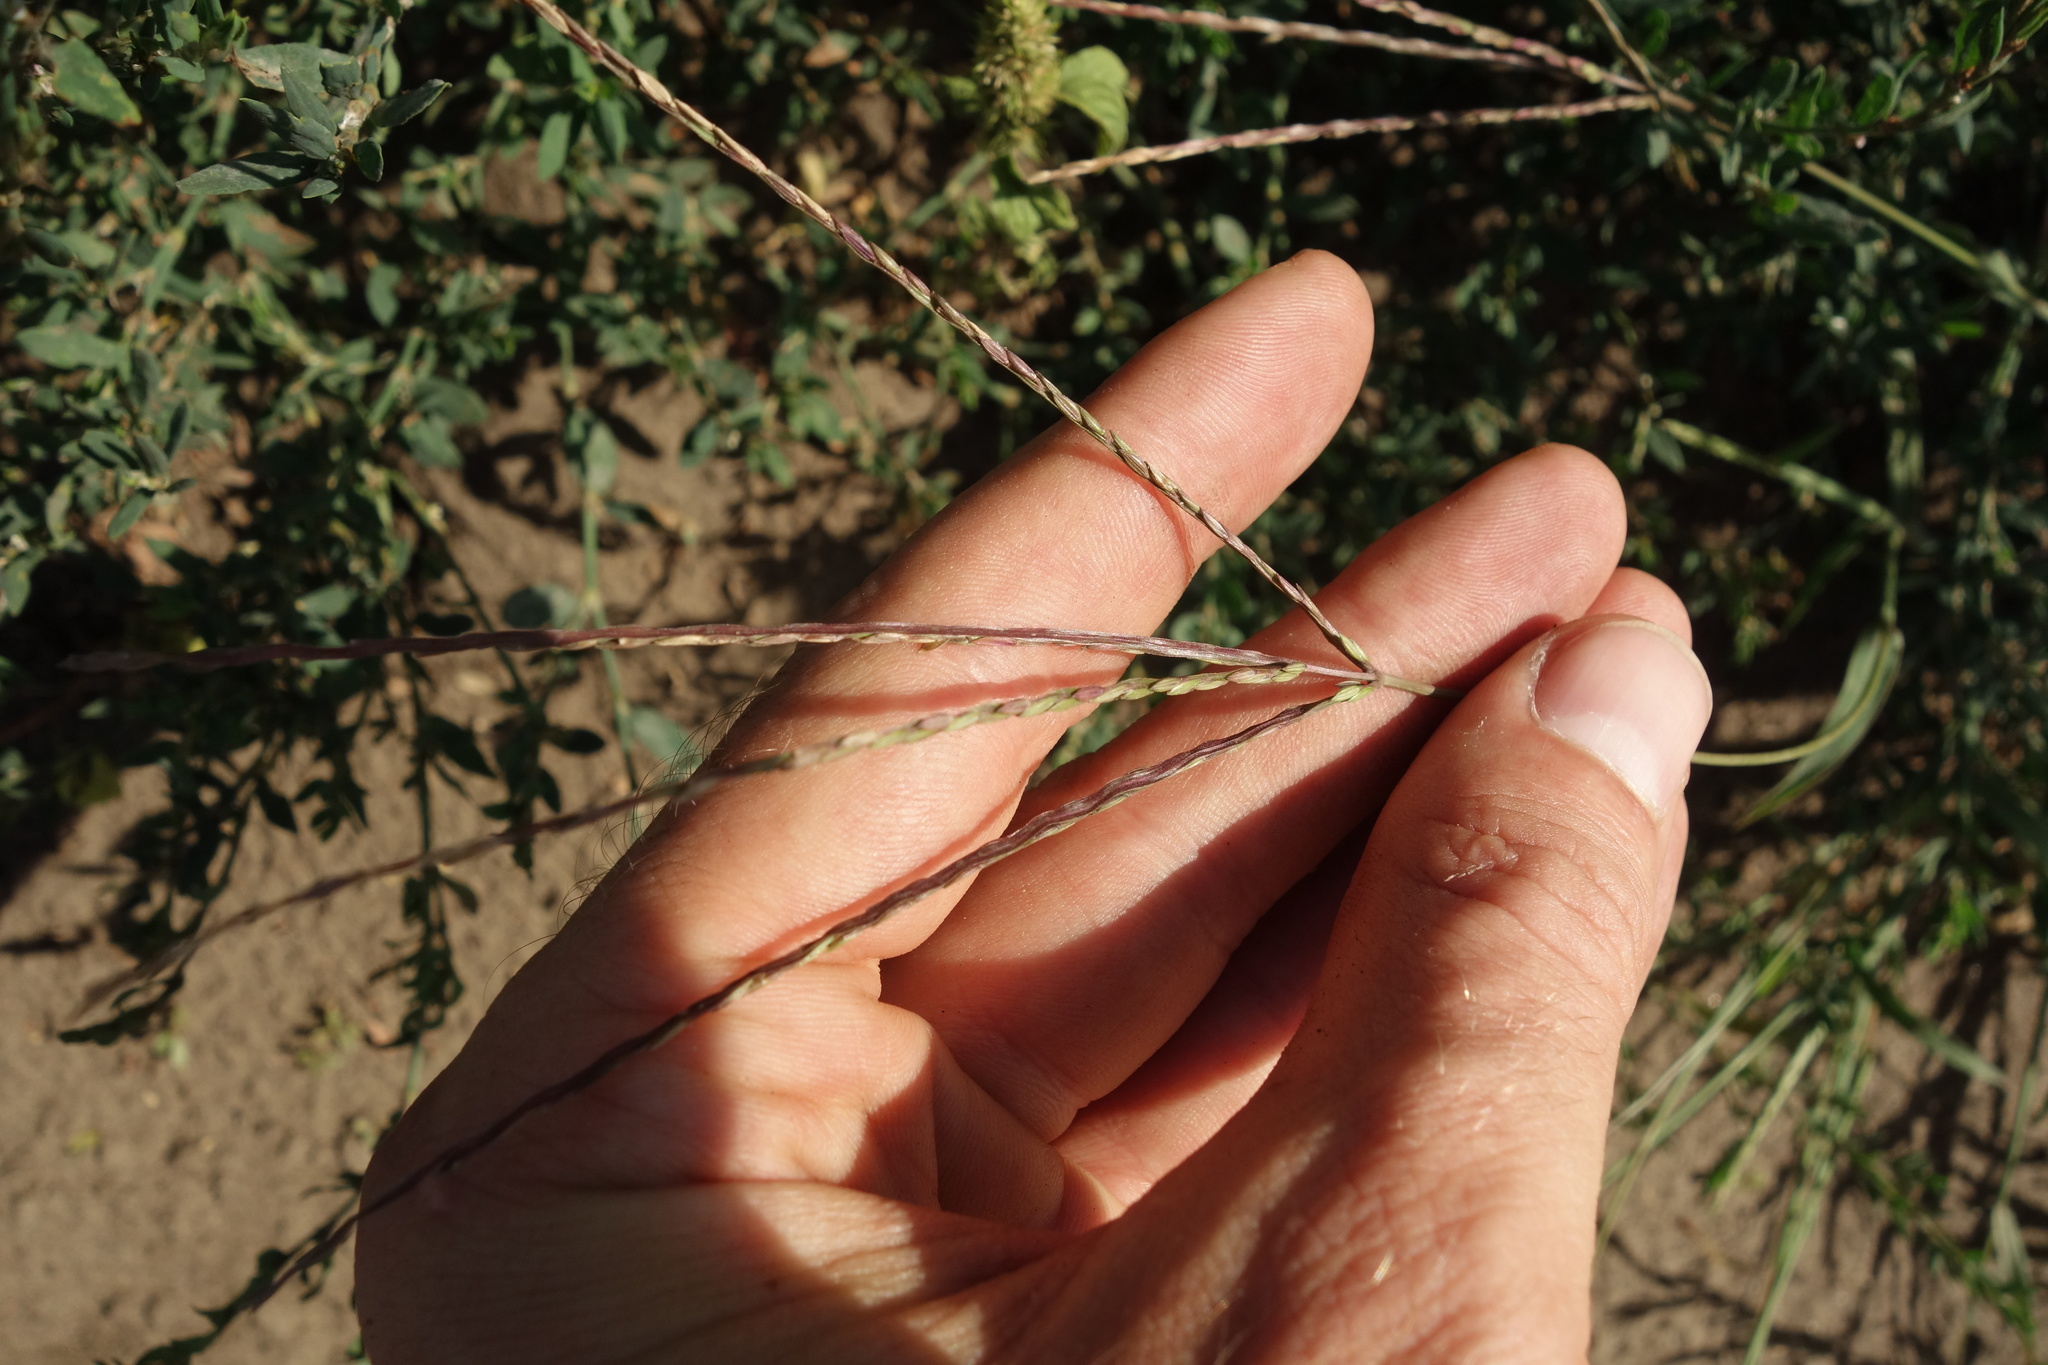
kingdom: Plantae
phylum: Tracheophyta
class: Liliopsida
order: Poales
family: Poaceae
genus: Digitaria
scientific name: Digitaria sanguinalis
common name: Hairy crabgrass
